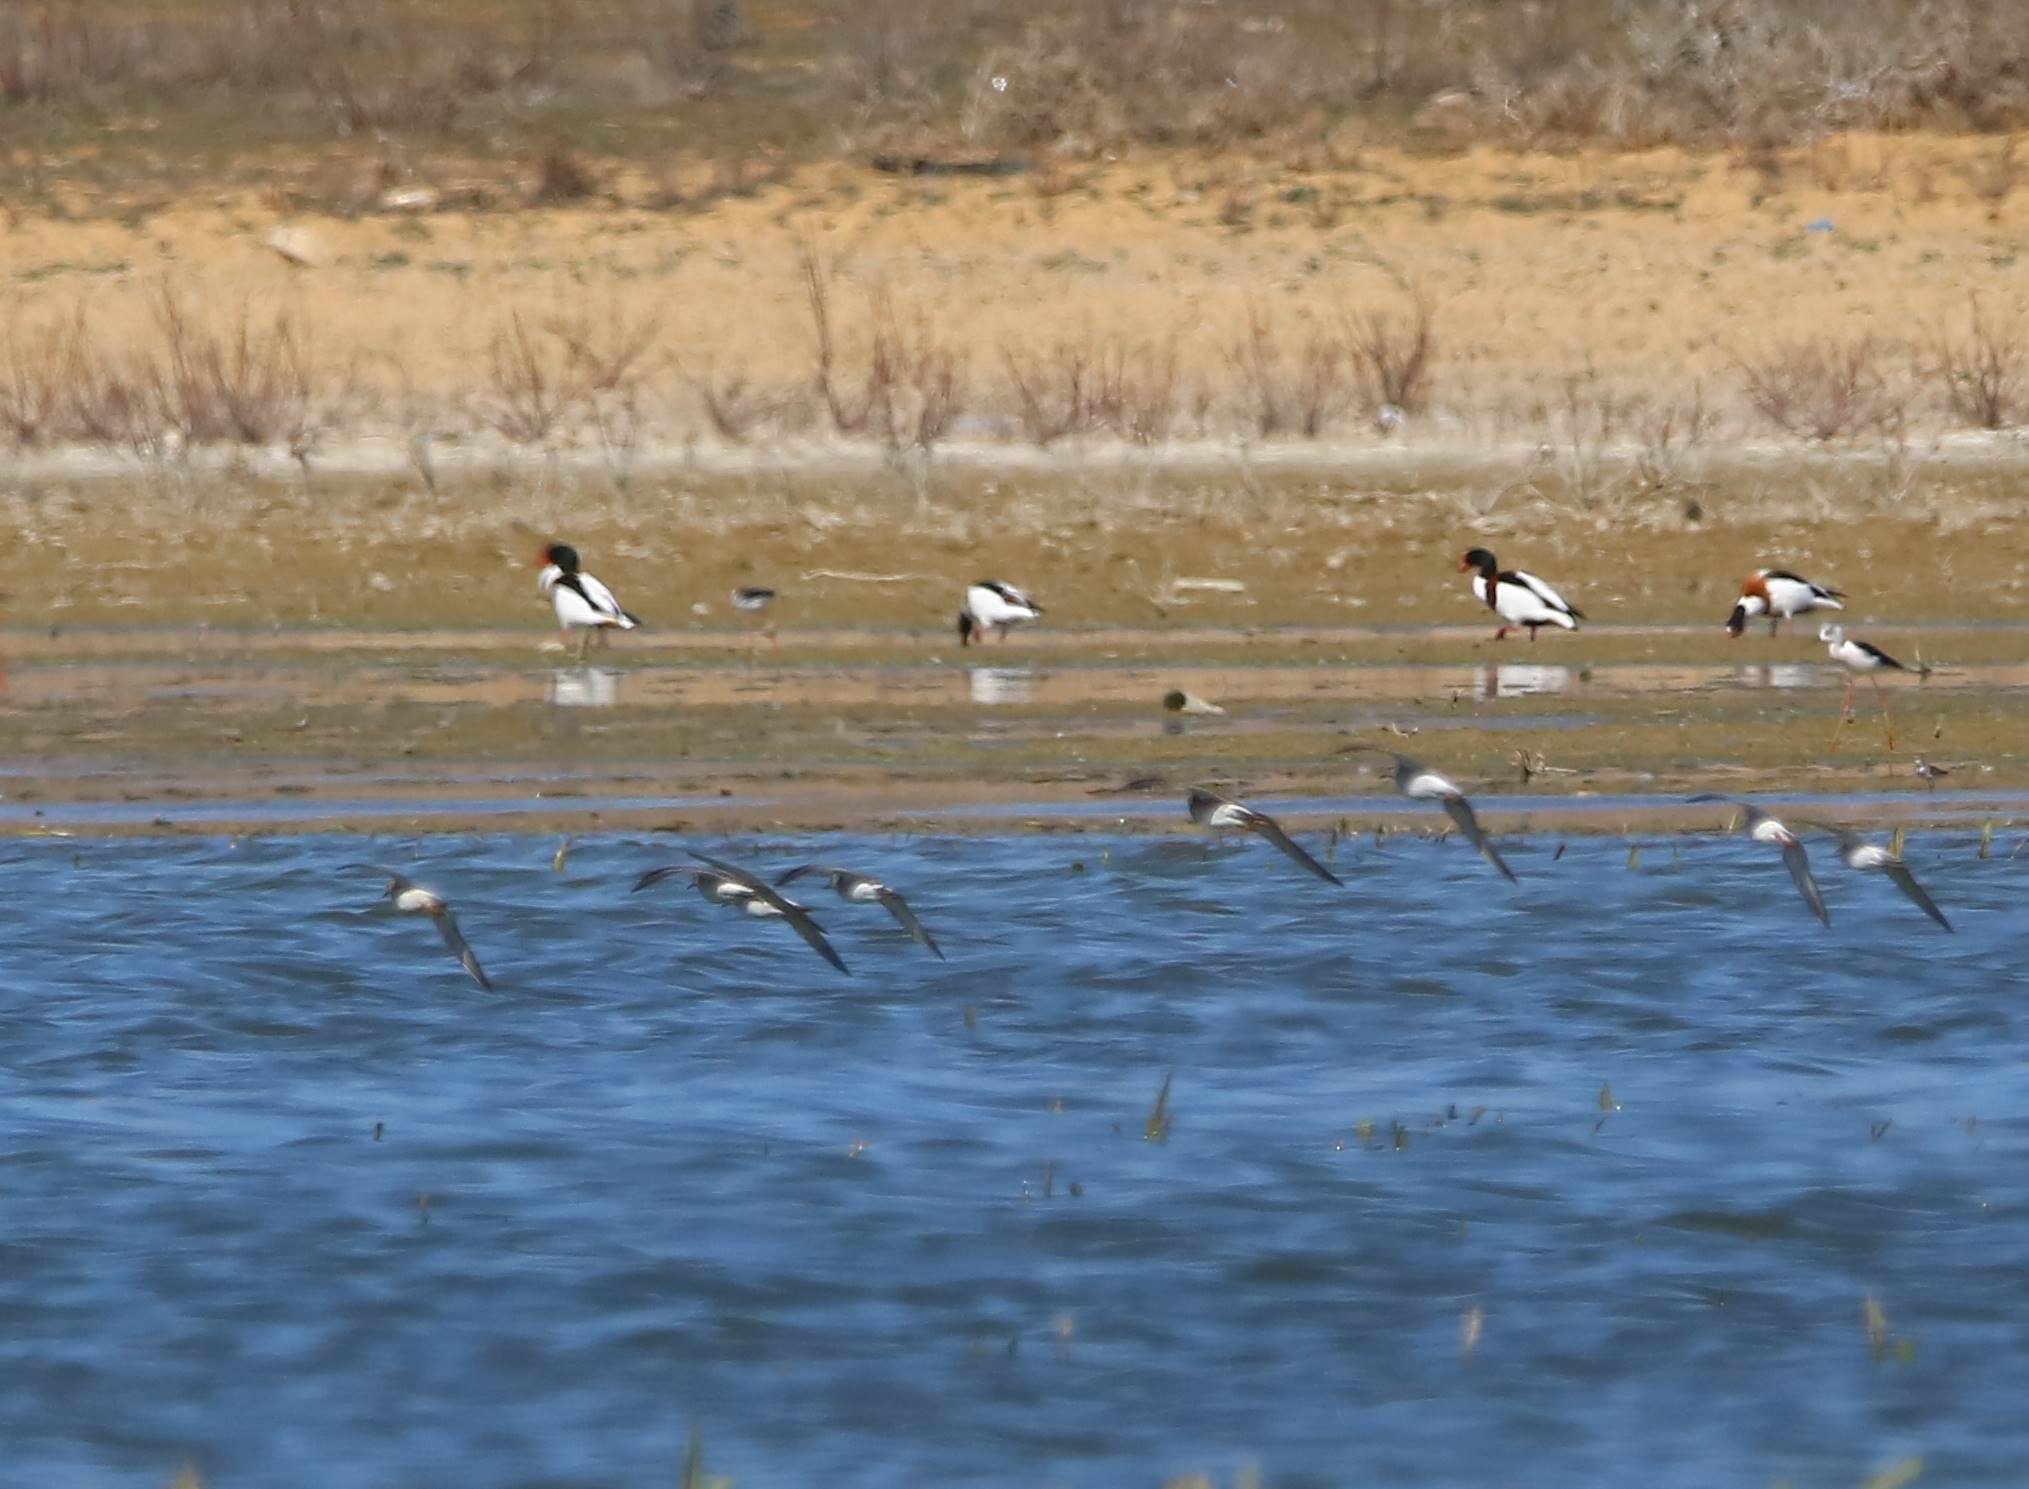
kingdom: Animalia
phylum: Chordata
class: Aves
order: Anseriformes
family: Anatidae
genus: Tadorna
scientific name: Tadorna tadorna
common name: Common shelduck
